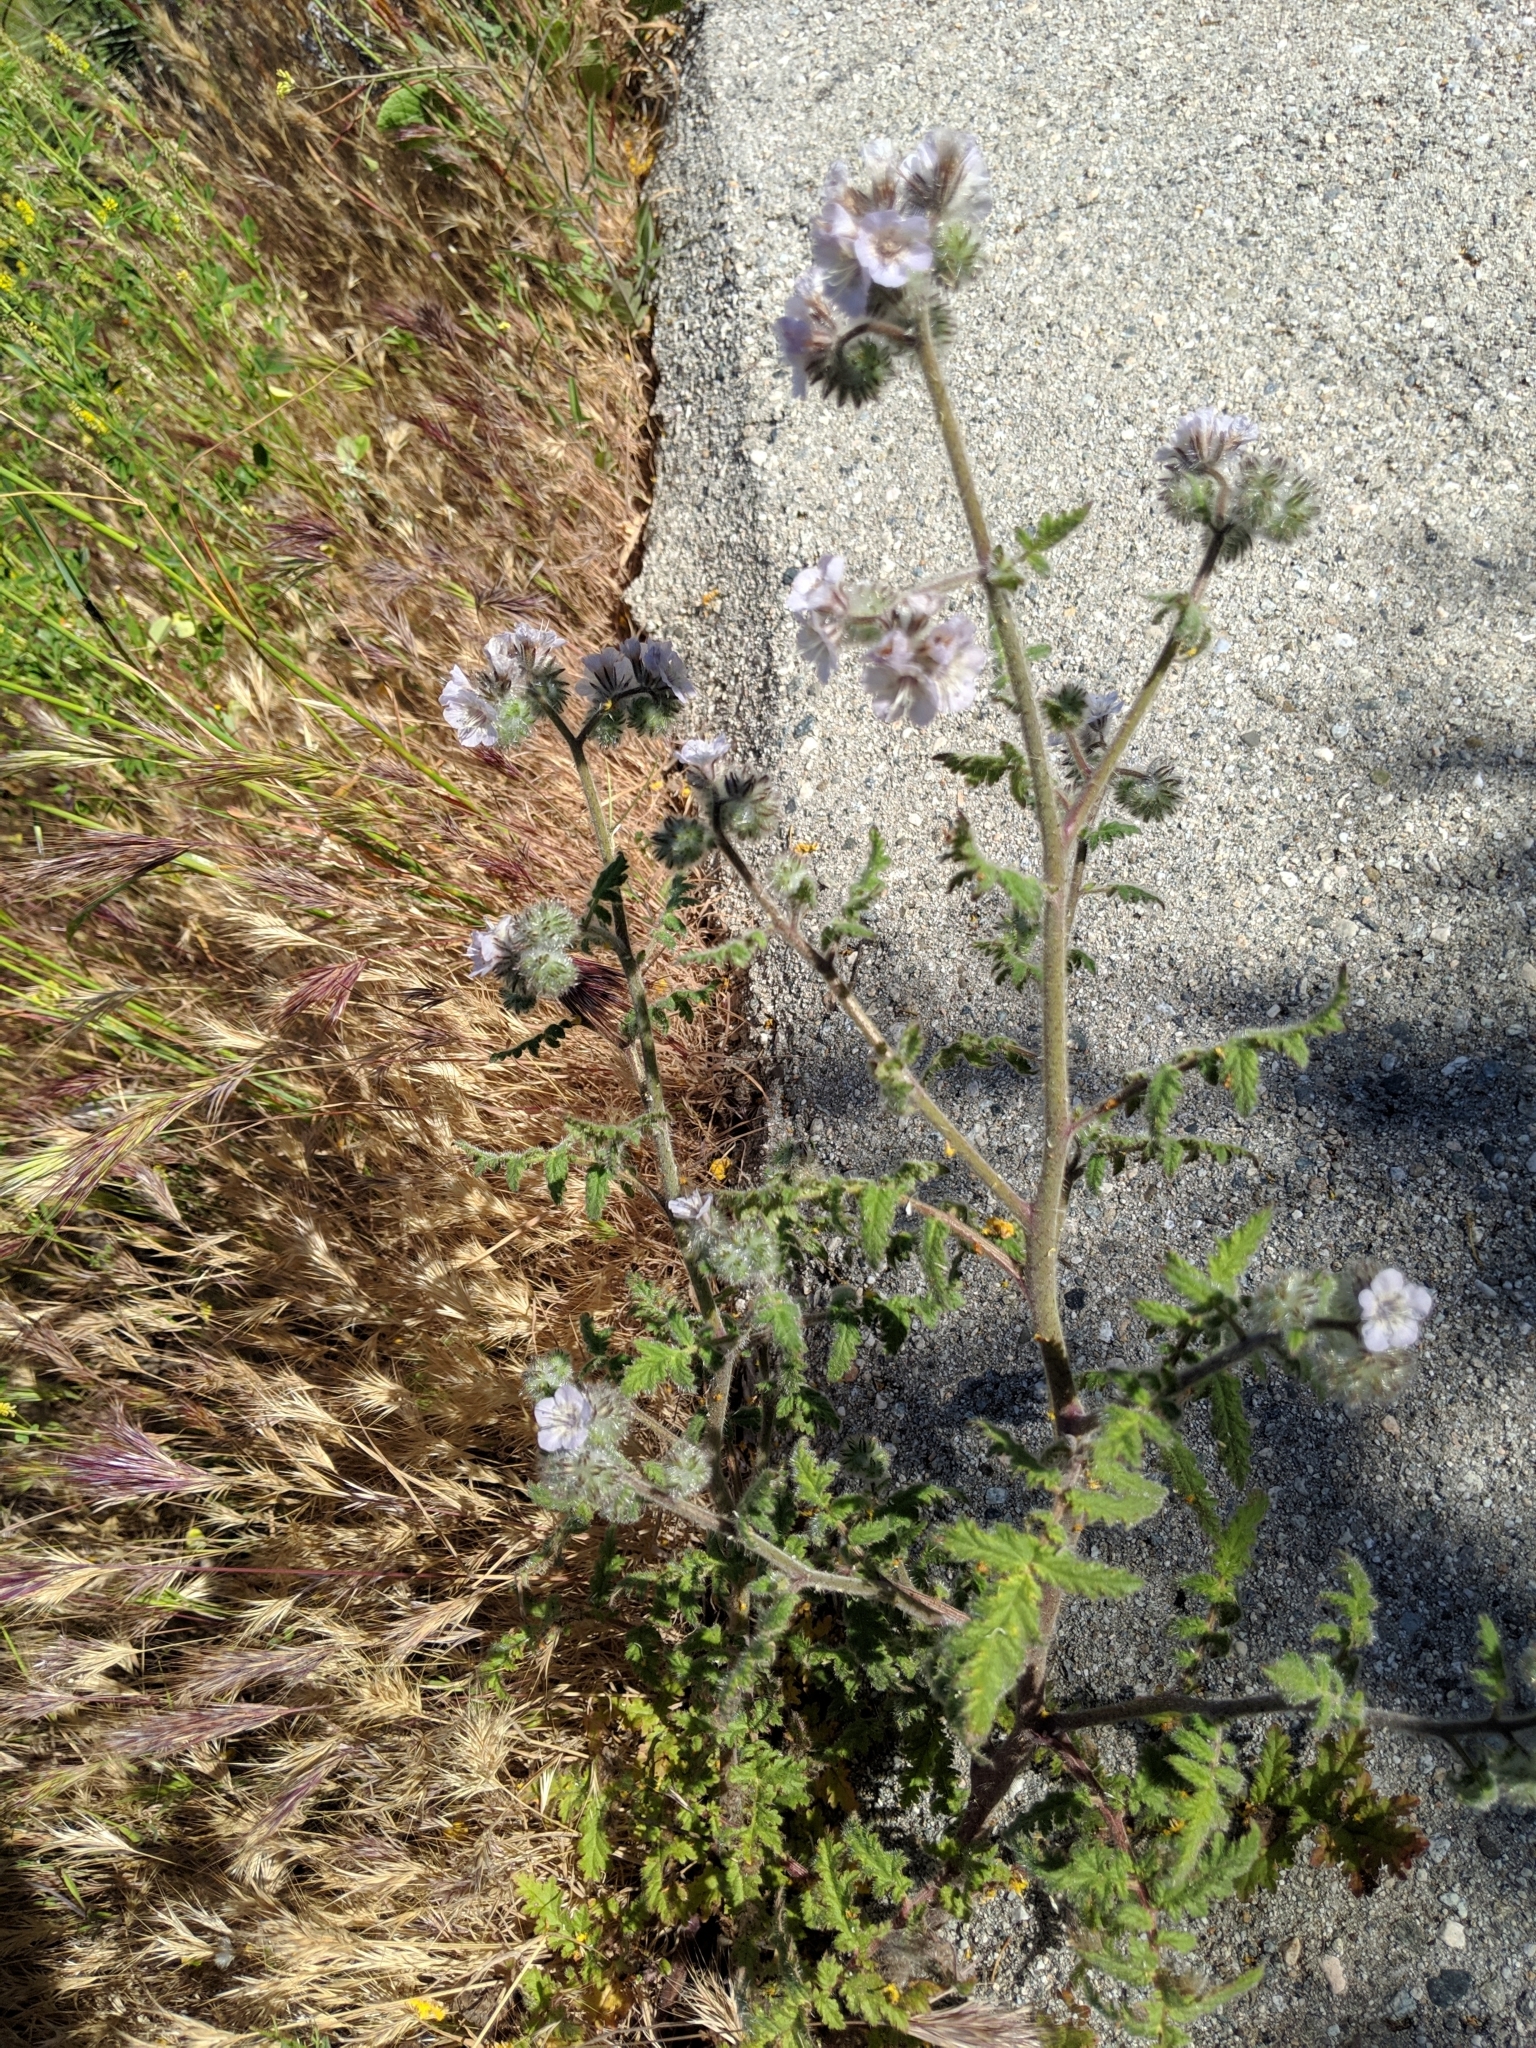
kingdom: Plantae
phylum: Tracheophyta
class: Magnoliopsida
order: Boraginales
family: Hydrophyllaceae
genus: Phacelia
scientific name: Phacelia cicutaria
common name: Caterpillar phacelia
